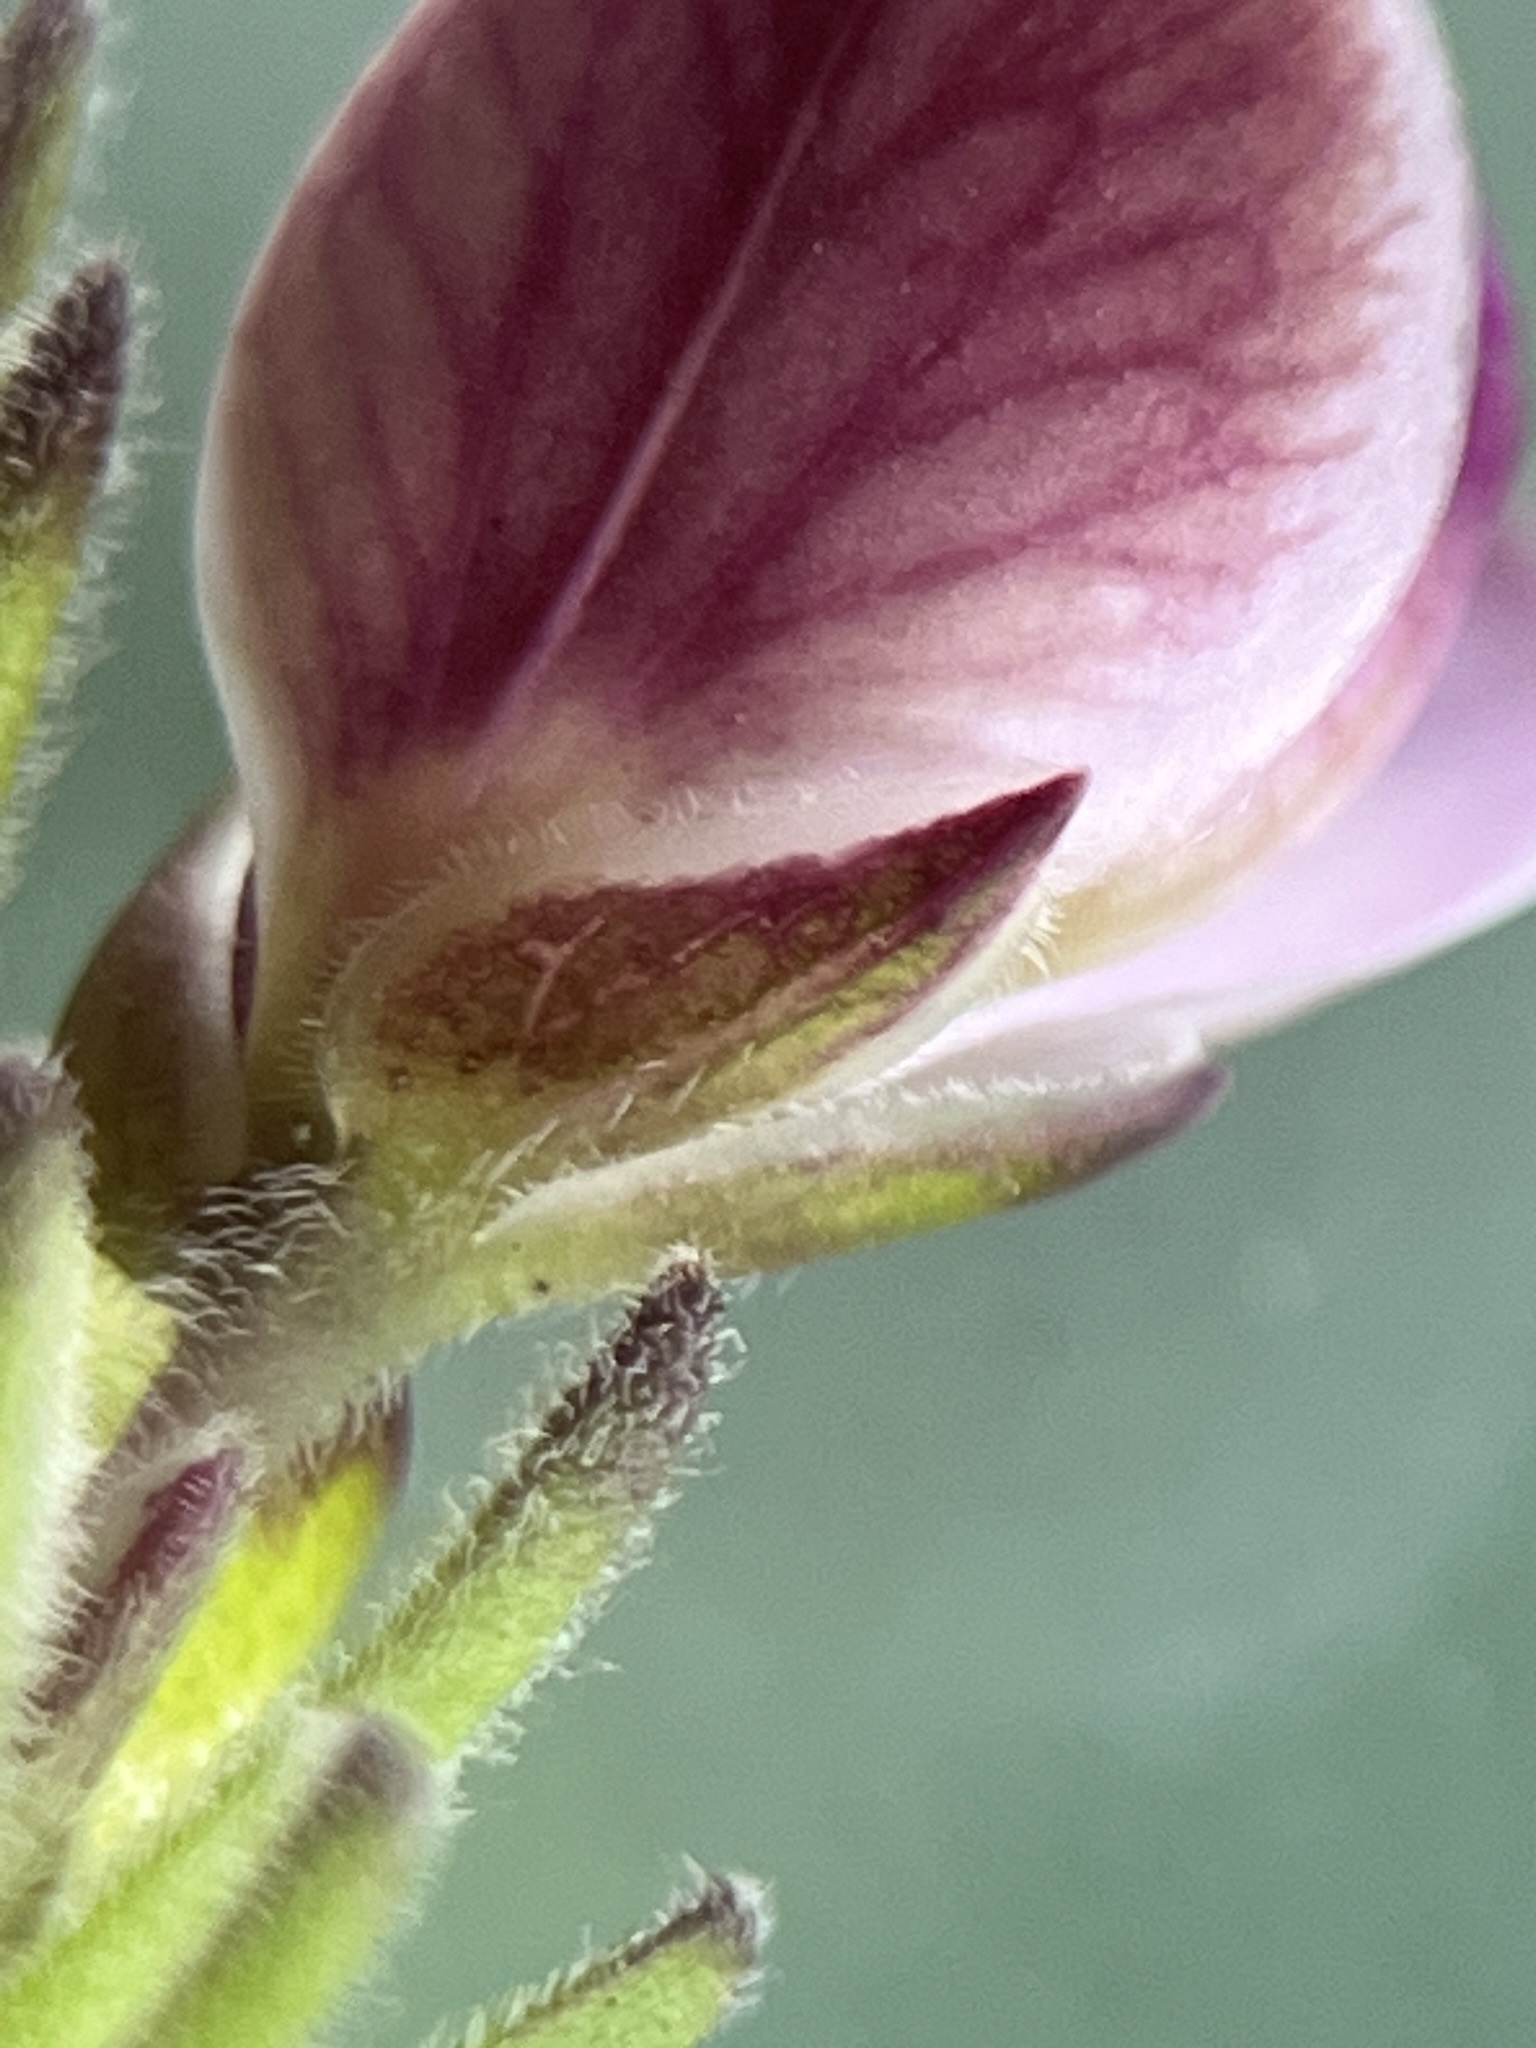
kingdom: Plantae
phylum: Tracheophyta
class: Magnoliopsida
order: Fabales
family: Polygalaceae
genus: Polygala
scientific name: Polygala dasyphylla
